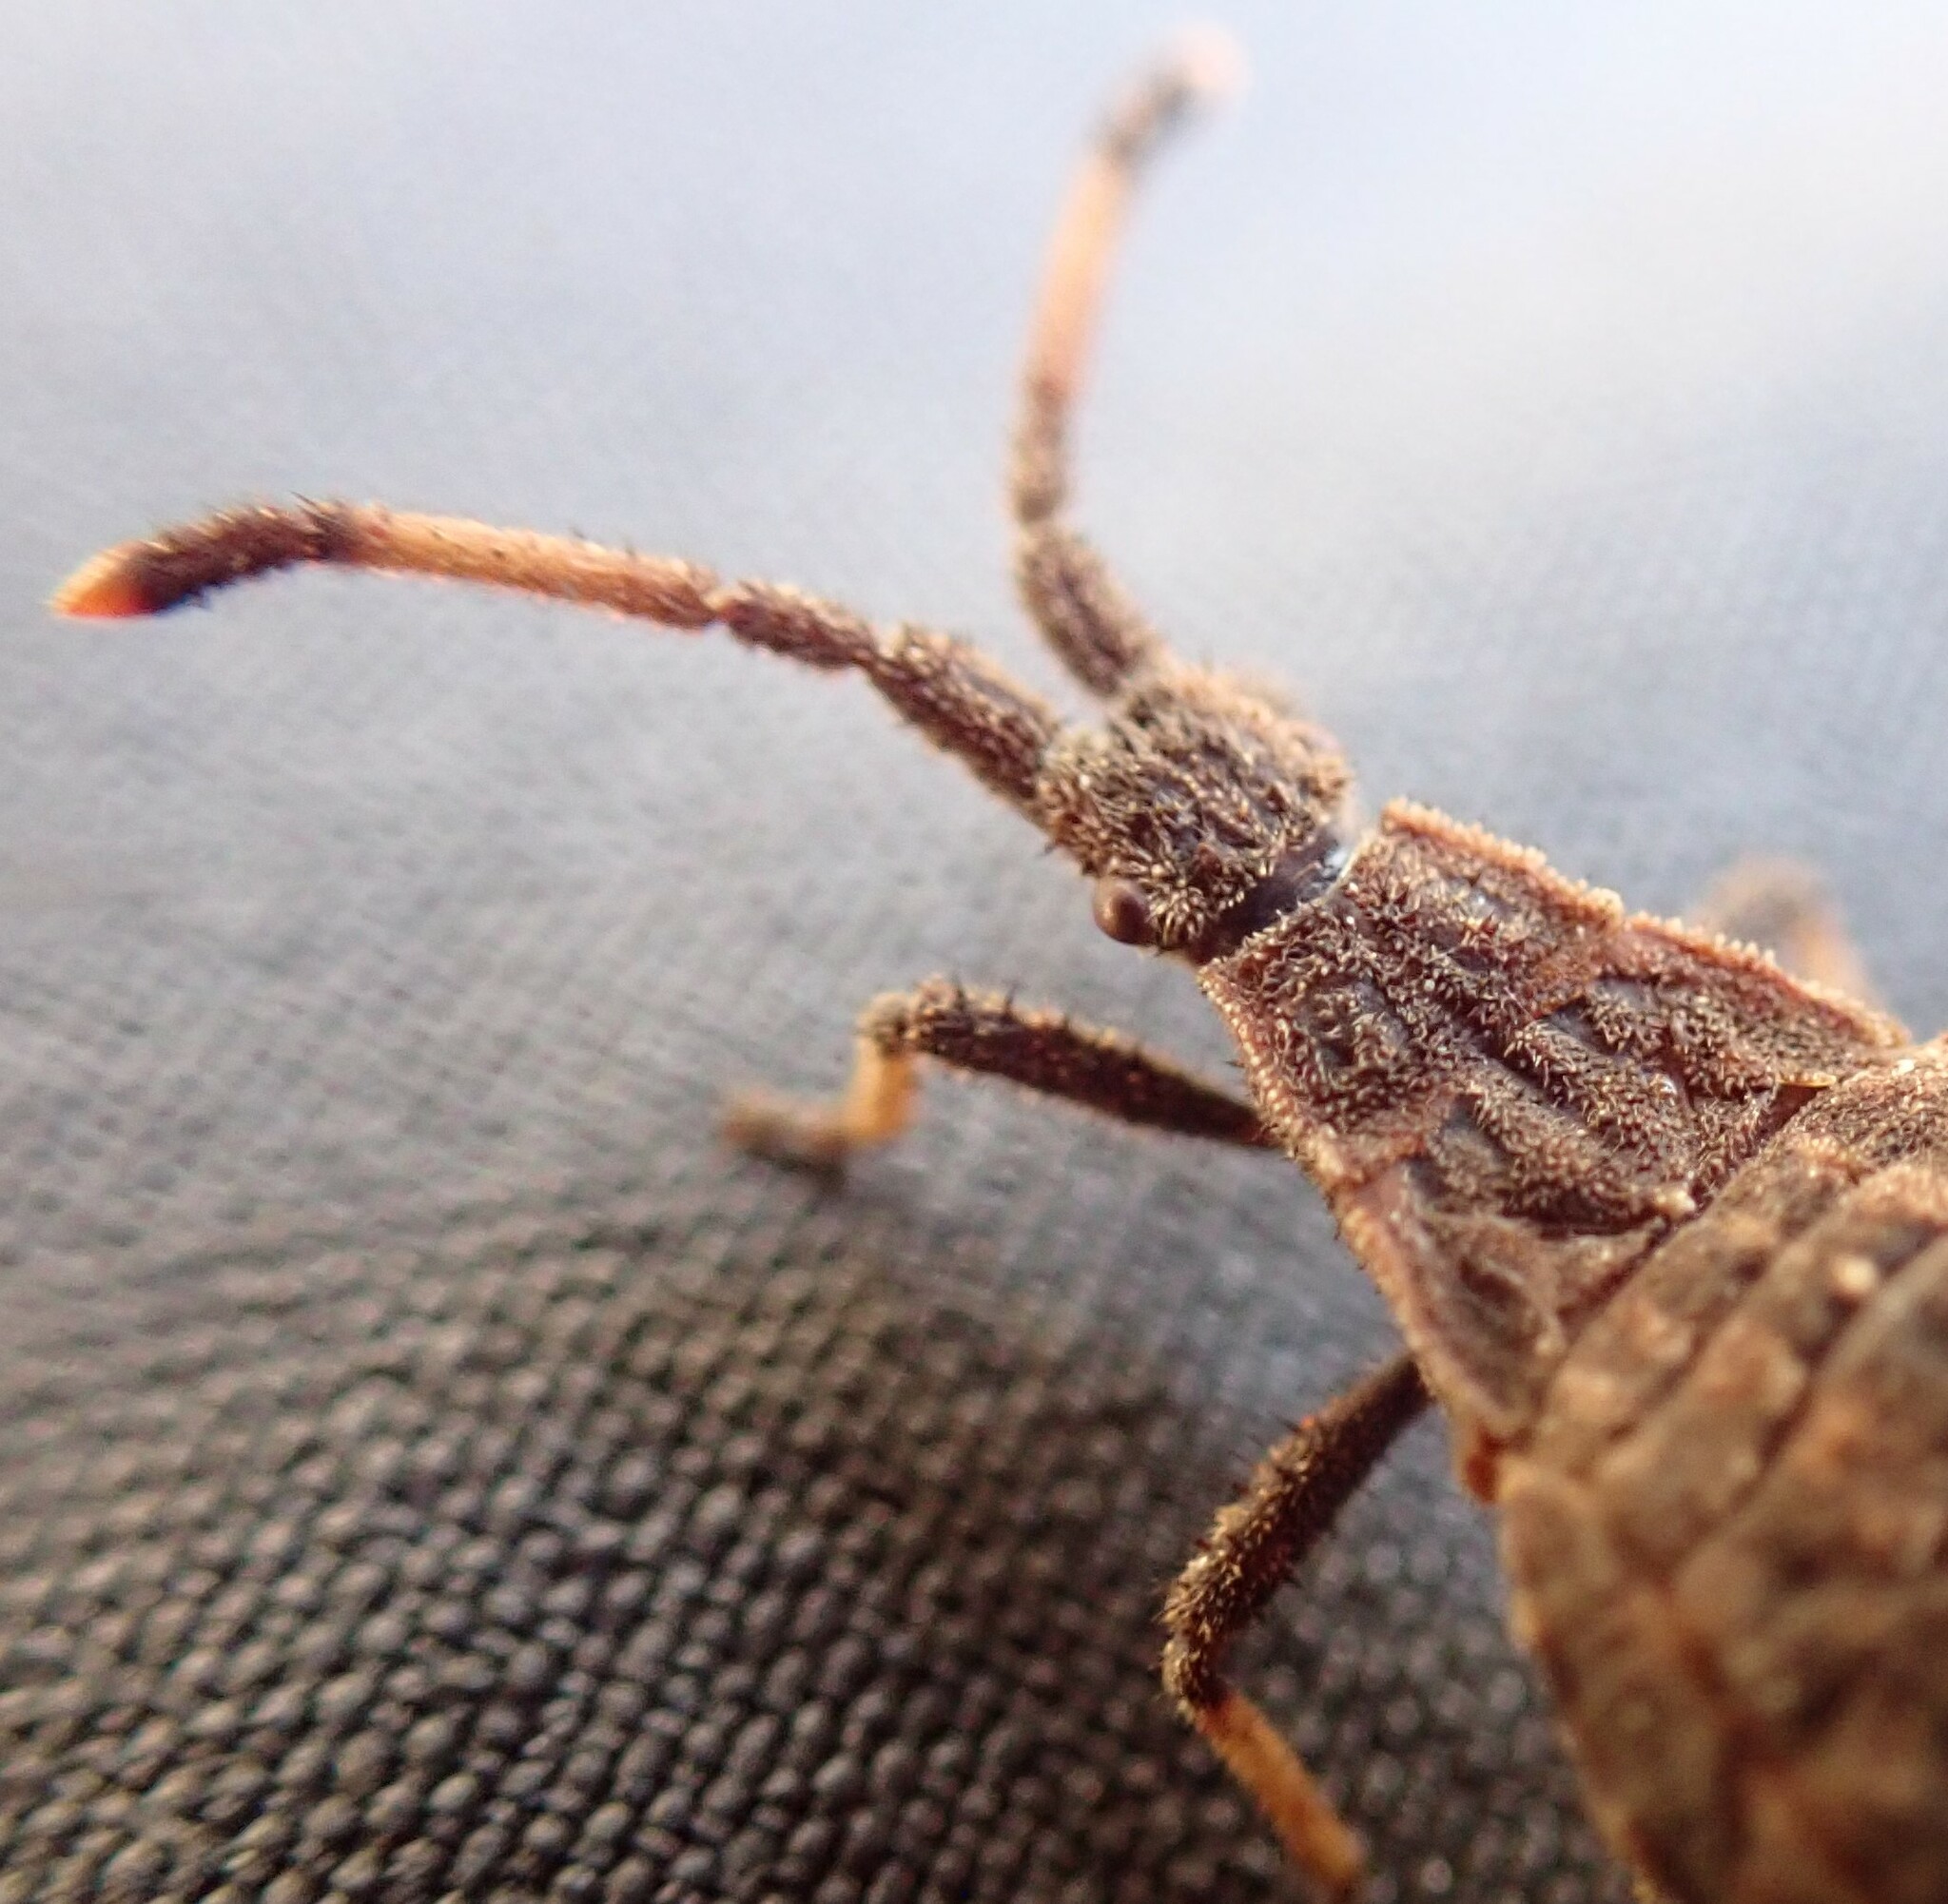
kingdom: Animalia
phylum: Arthropoda
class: Insecta
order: Hemiptera
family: Coreidae
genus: Agriopocoris
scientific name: Agriopocoris froggatti
